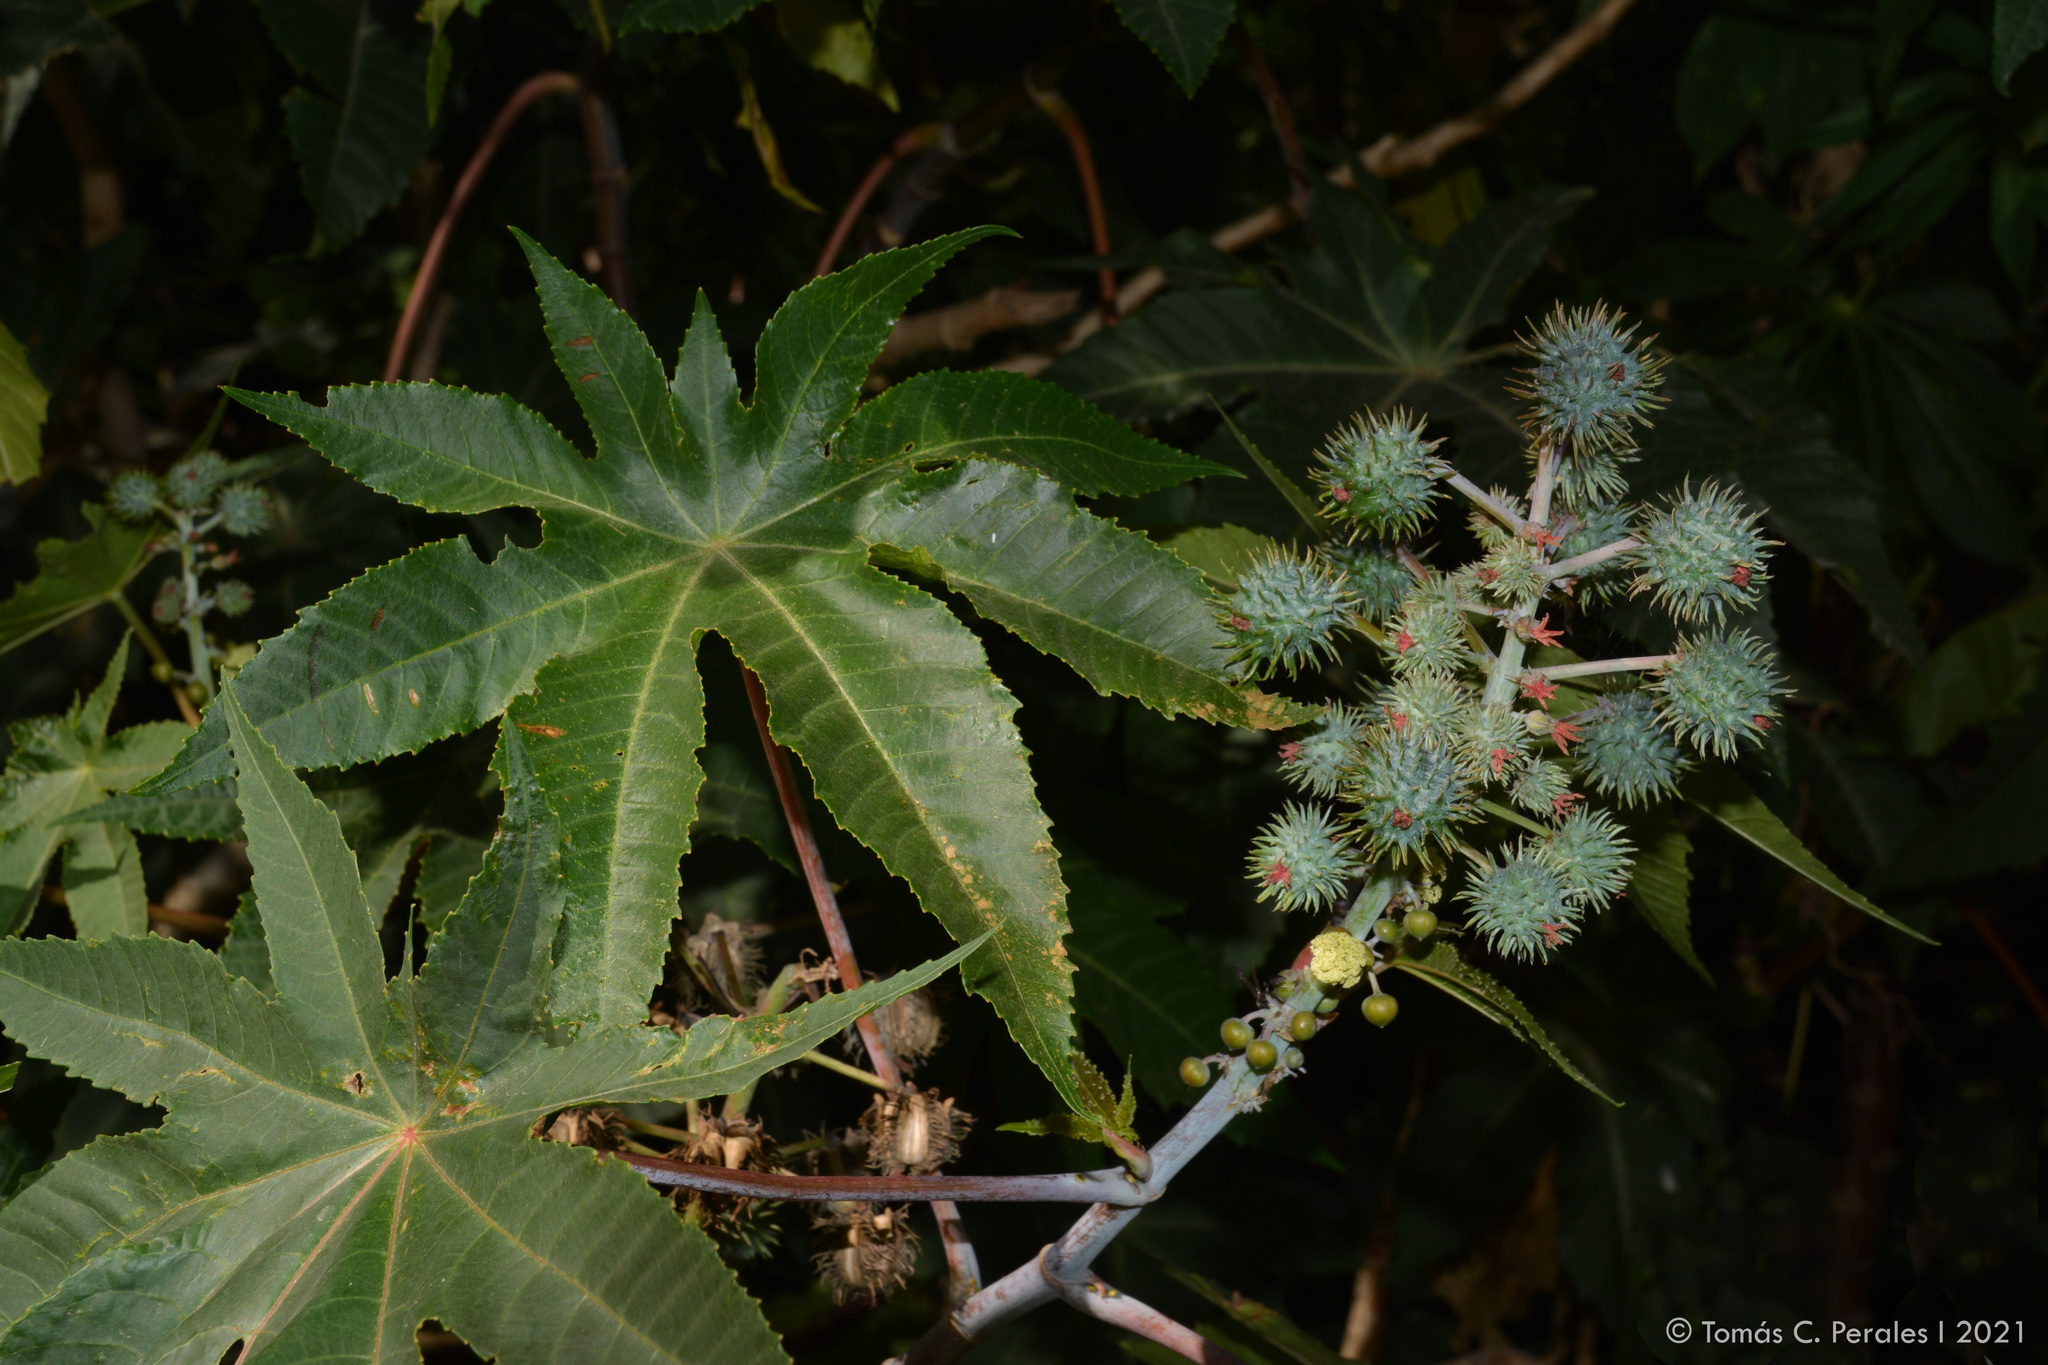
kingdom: Plantae
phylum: Tracheophyta
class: Magnoliopsida
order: Malpighiales
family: Euphorbiaceae
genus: Ricinus
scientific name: Ricinus communis
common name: Castor-oil-plant
